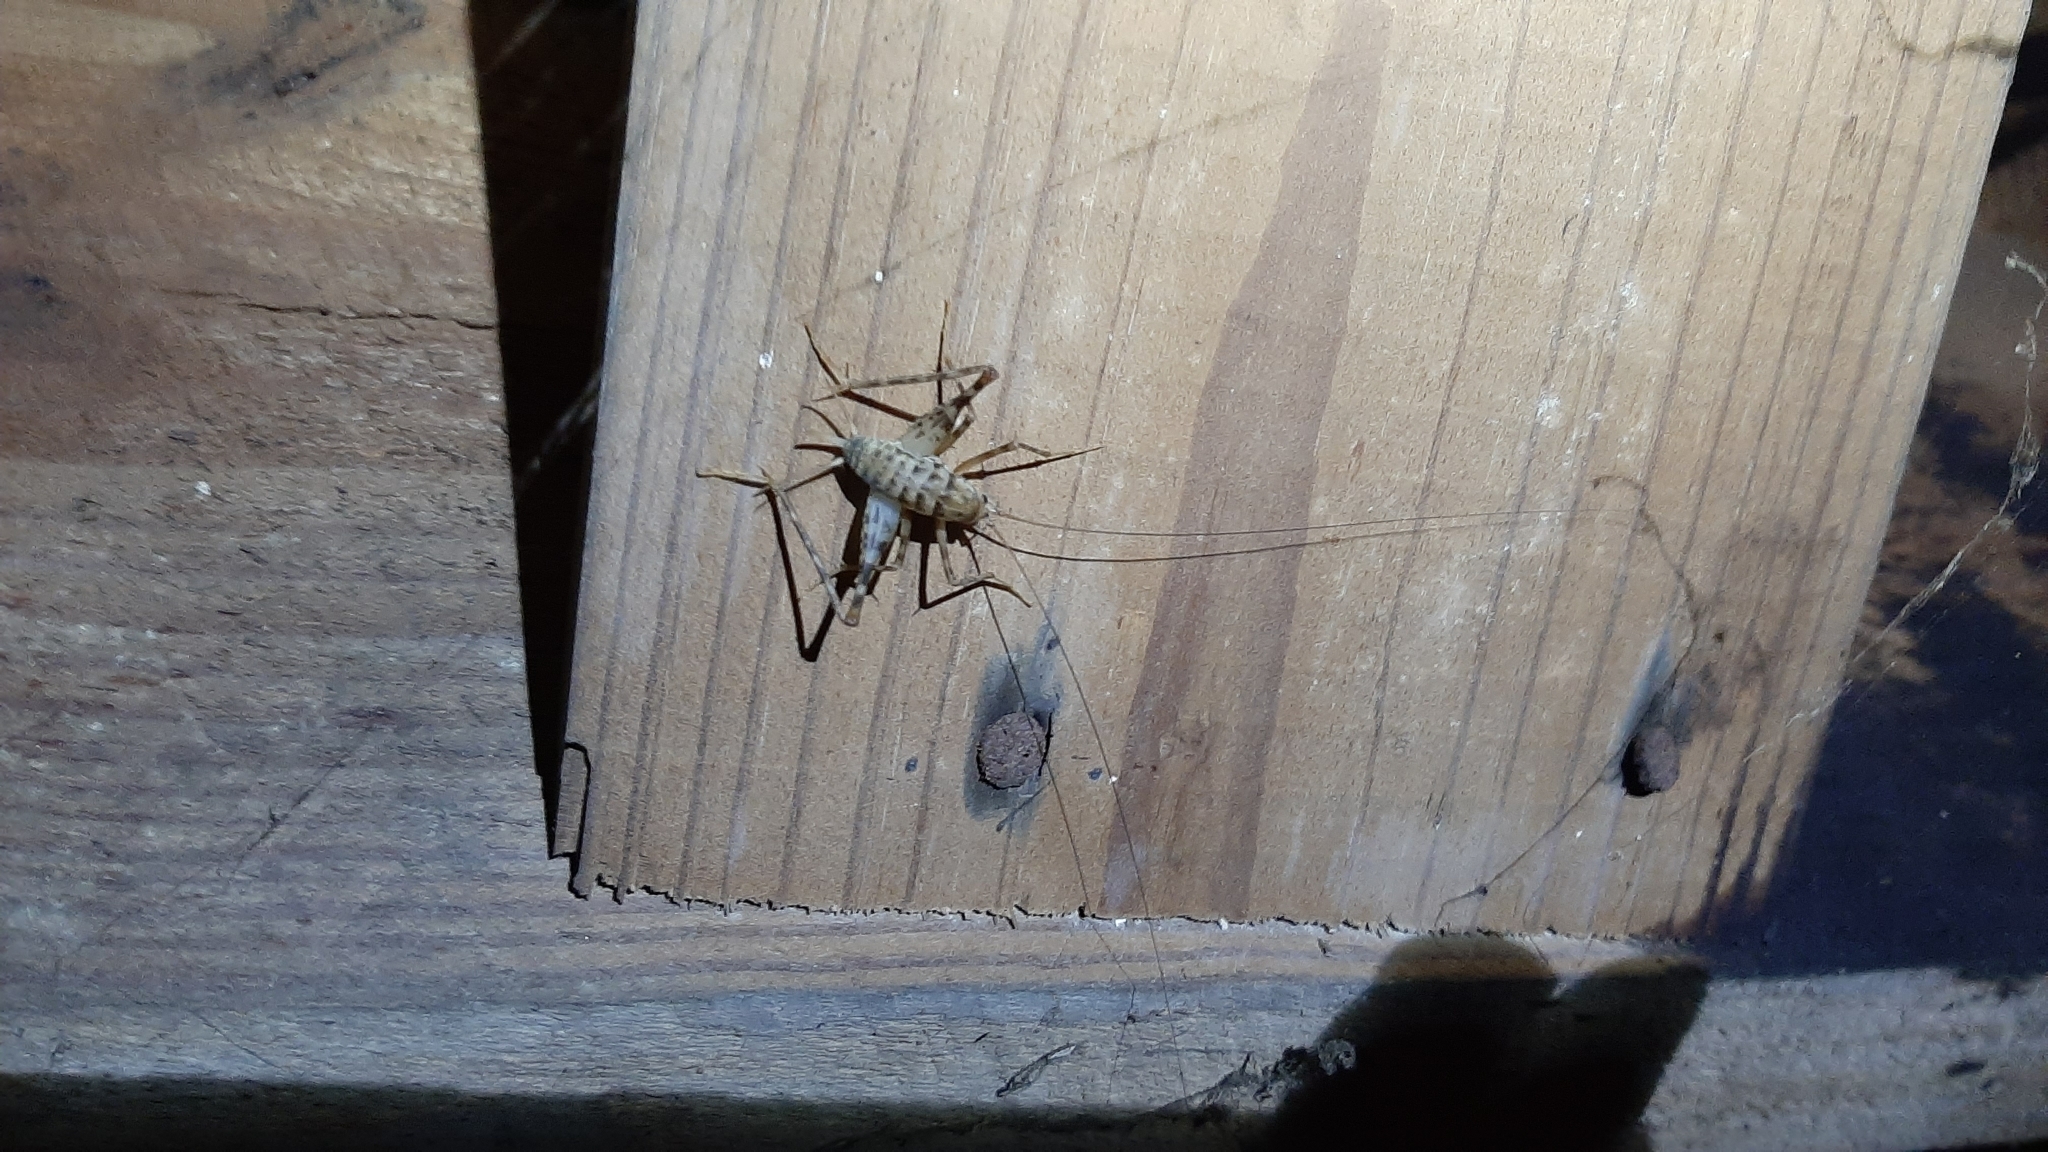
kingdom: Animalia
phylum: Arthropoda
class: Insecta
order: Orthoptera
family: Rhaphidophoridae
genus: Tachycines
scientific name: Tachycines asynamorus
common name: Greenhouse camel cricket
